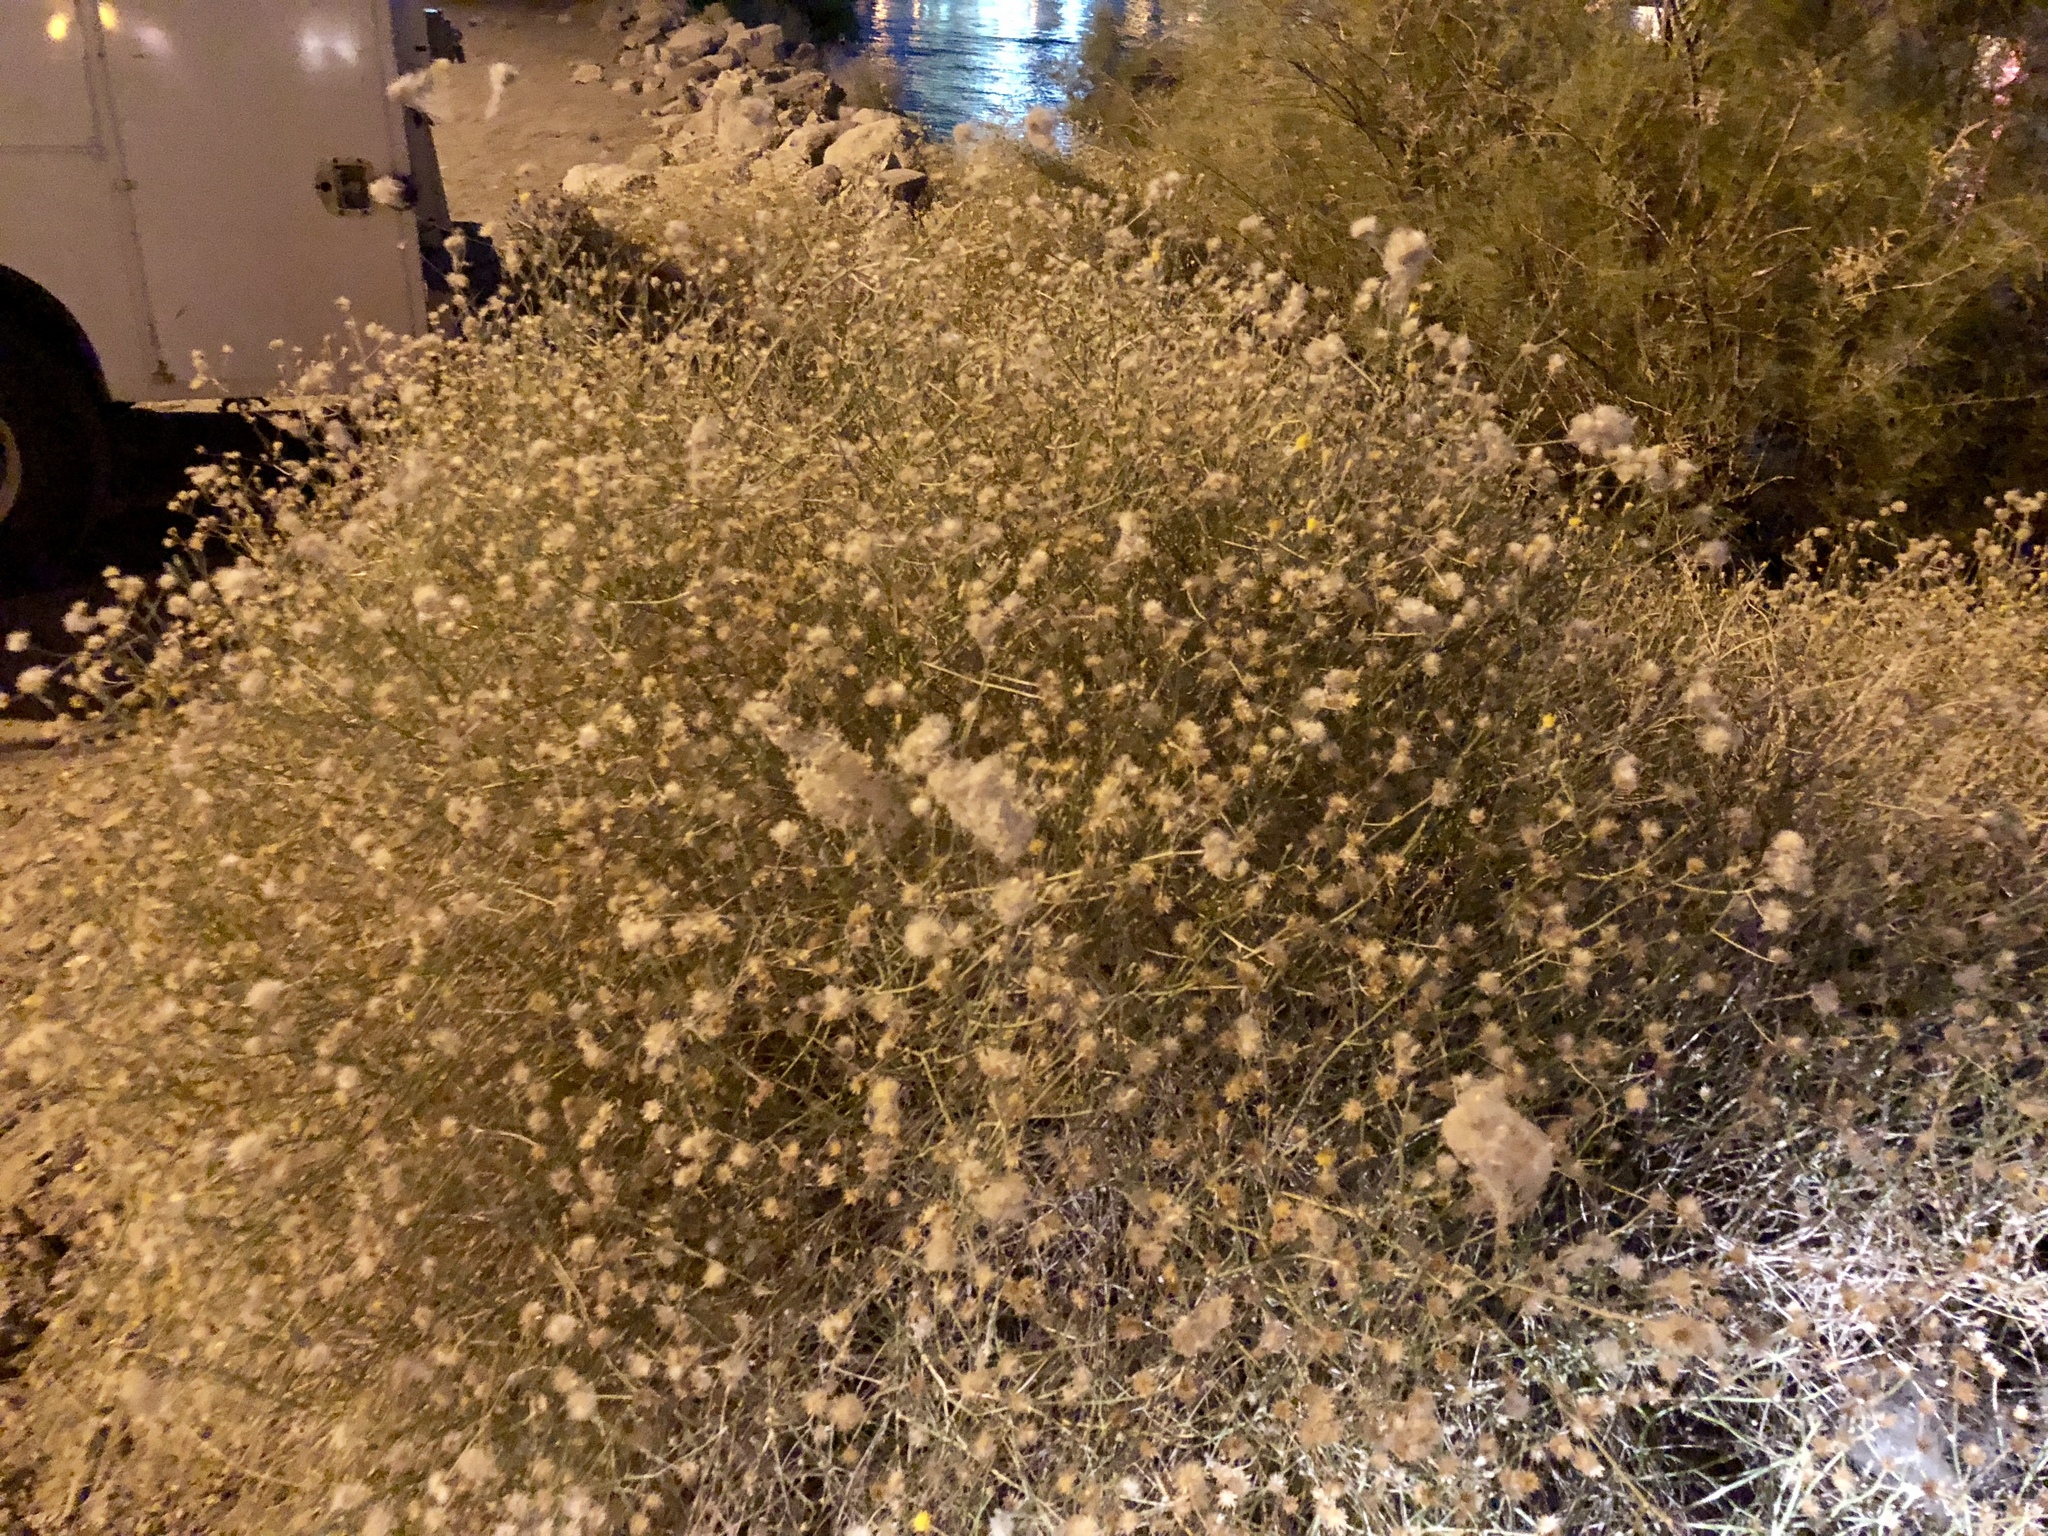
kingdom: Plantae
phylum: Tracheophyta
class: Magnoliopsida
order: Asterales
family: Asteraceae
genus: Bebbia
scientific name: Bebbia juncea
